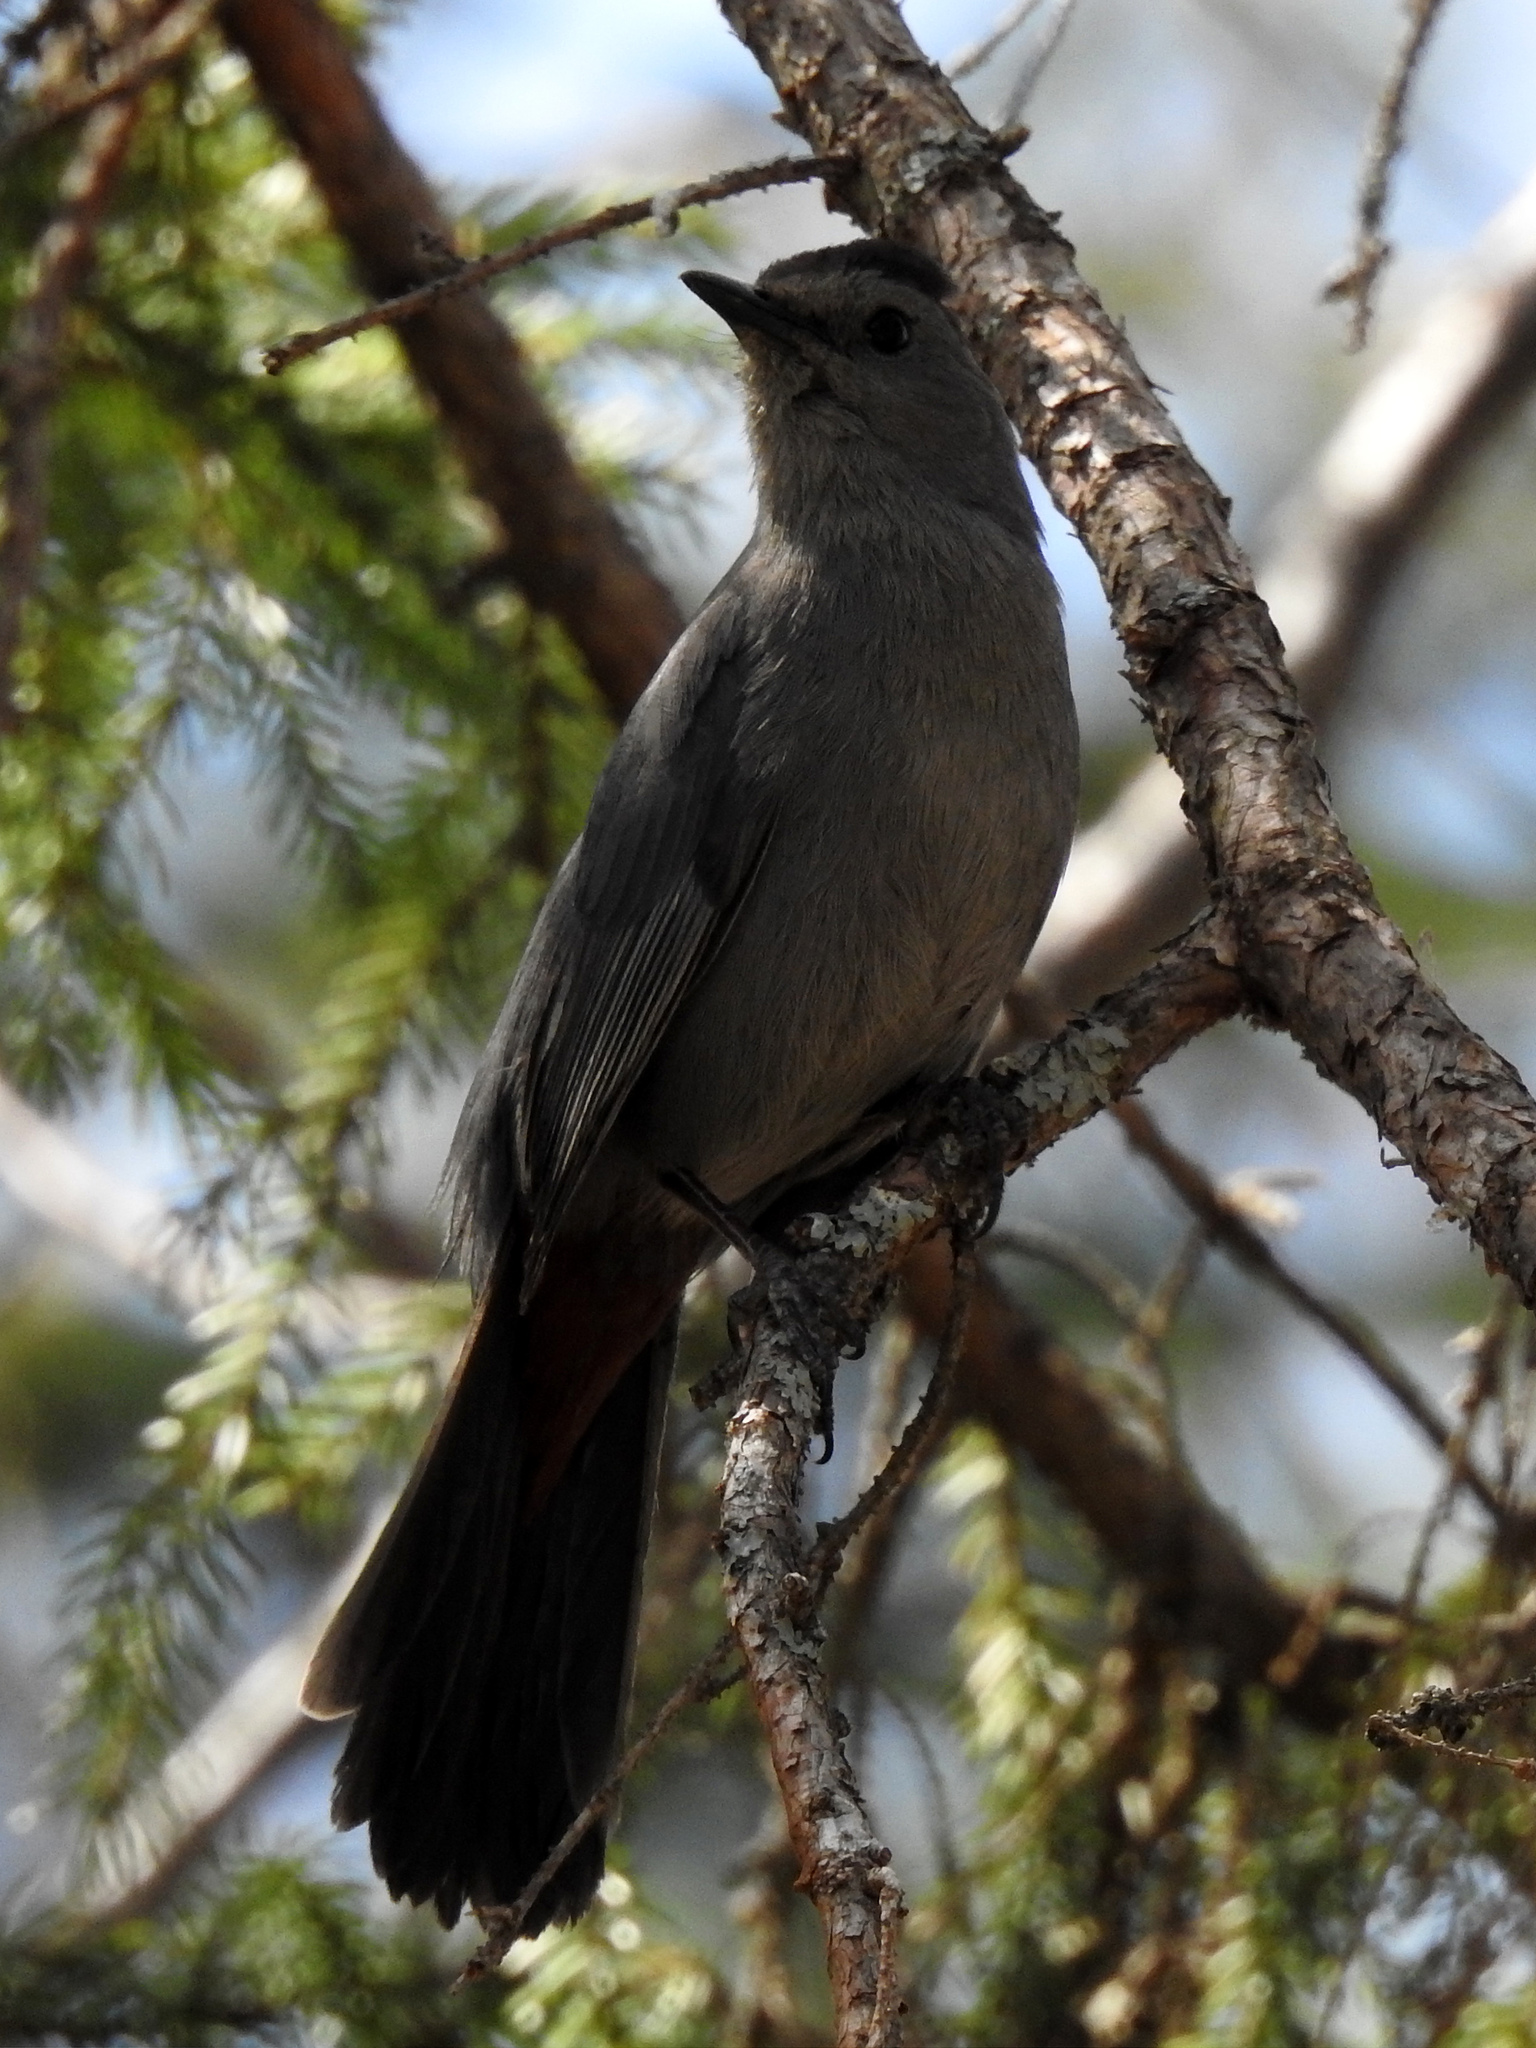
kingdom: Animalia
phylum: Chordata
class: Aves
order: Passeriformes
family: Mimidae
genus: Dumetella
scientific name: Dumetella carolinensis
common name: Gray catbird
